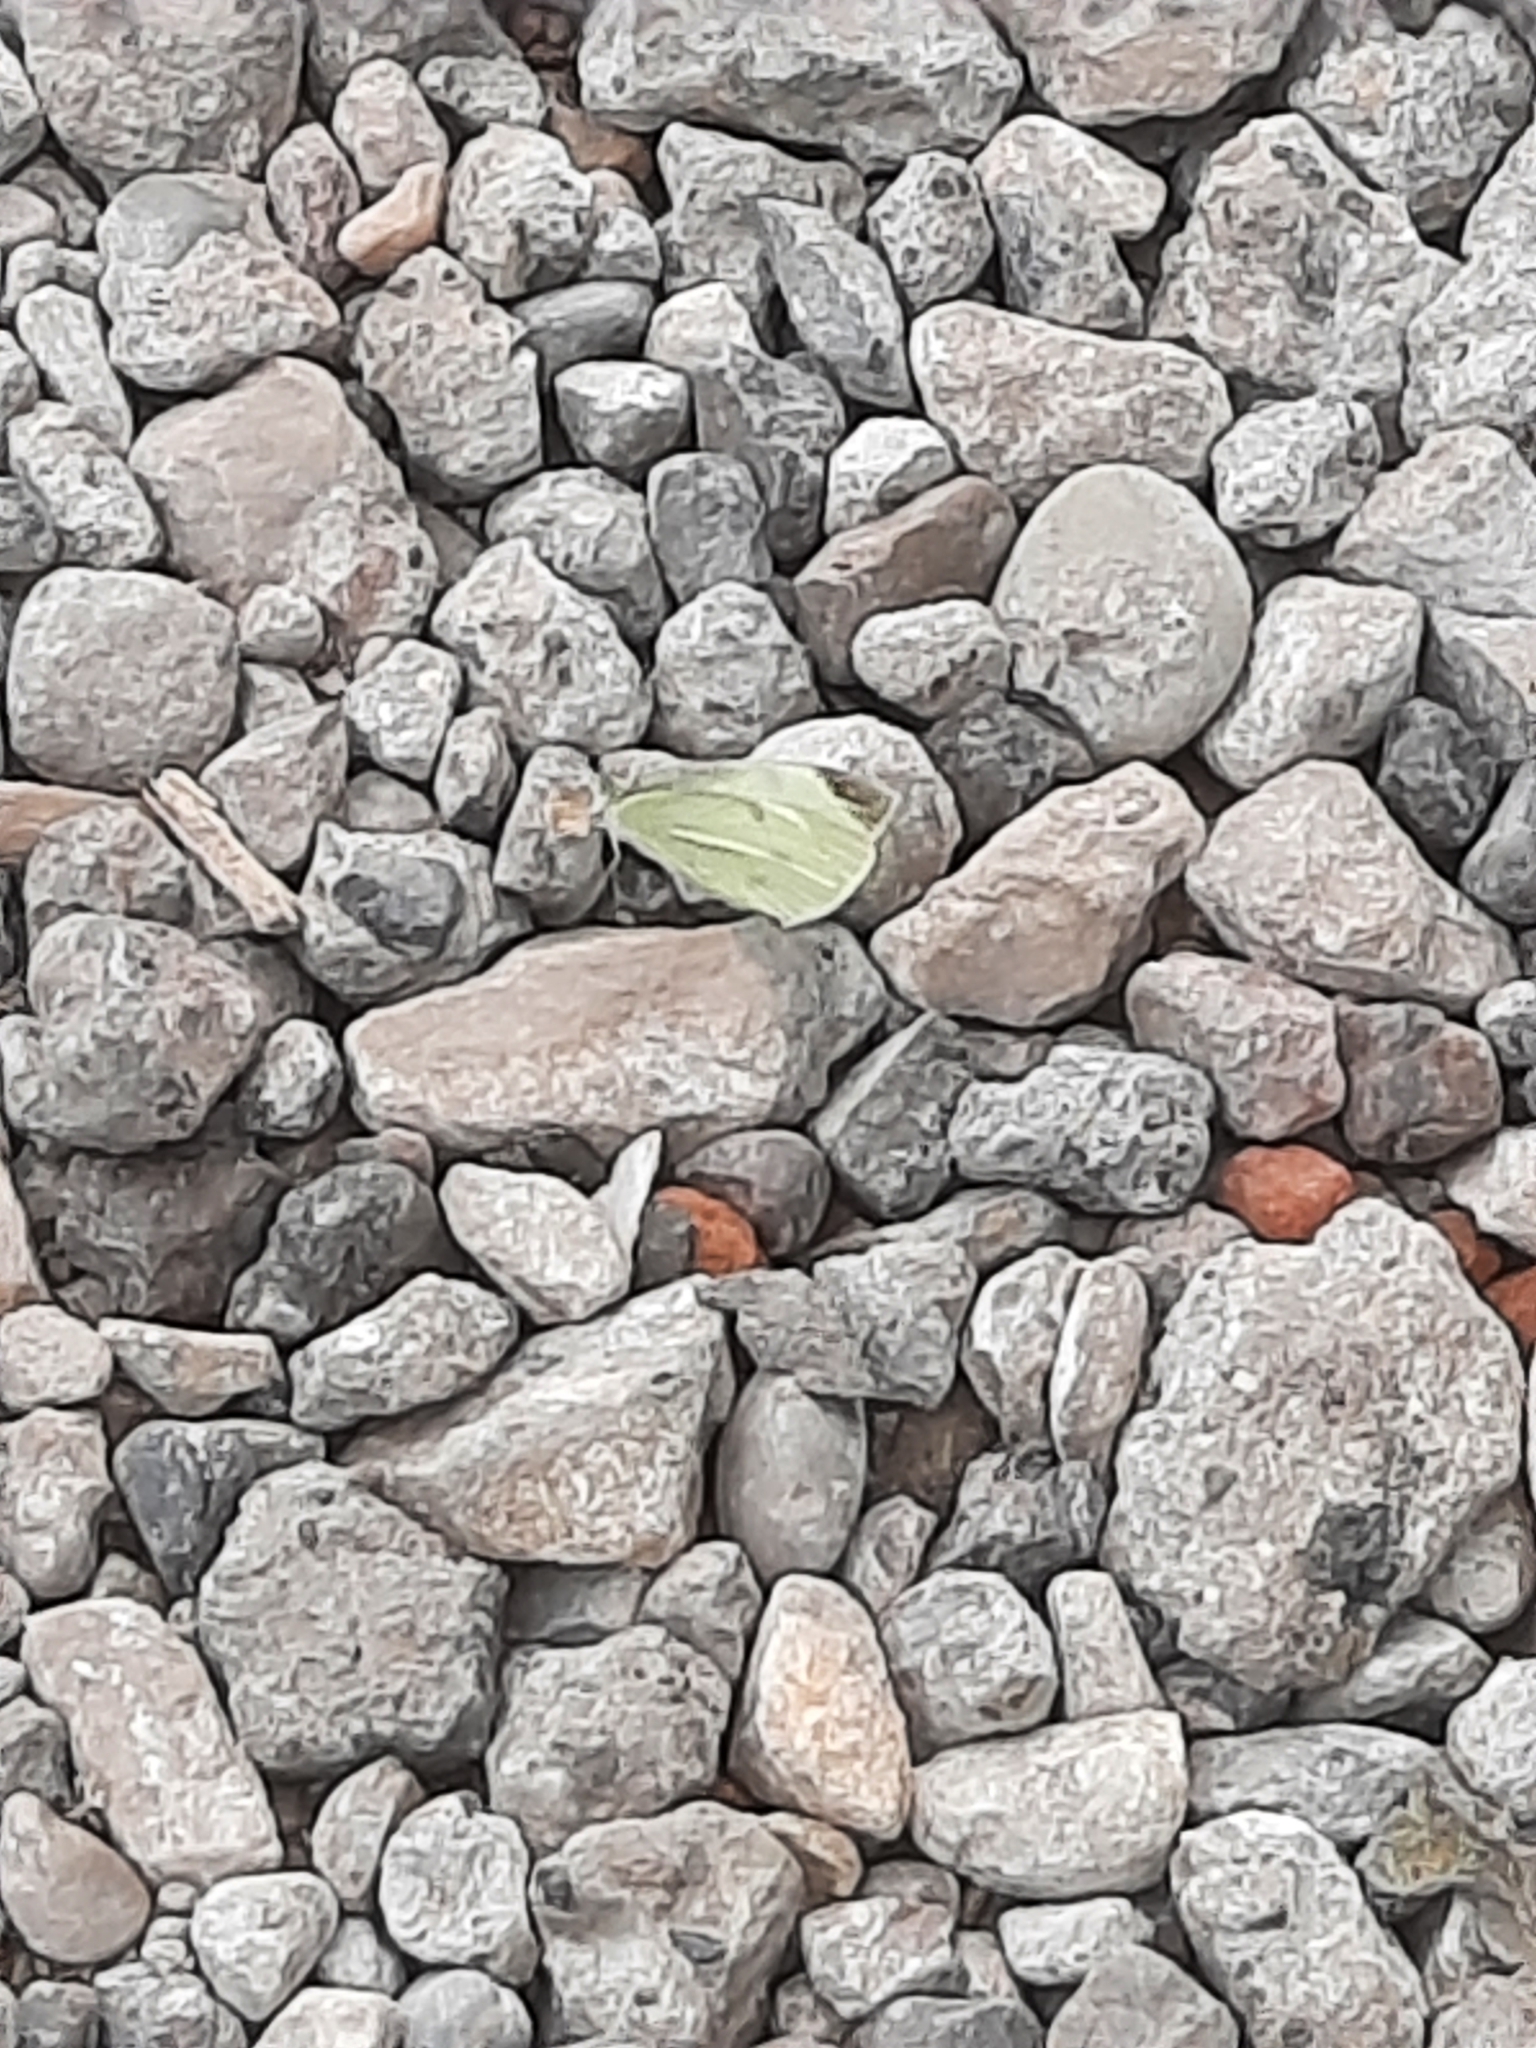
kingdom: Animalia
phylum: Arthropoda
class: Insecta
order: Lepidoptera
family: Pieridae
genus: Pieris
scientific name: Pieris rapae
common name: Small white
